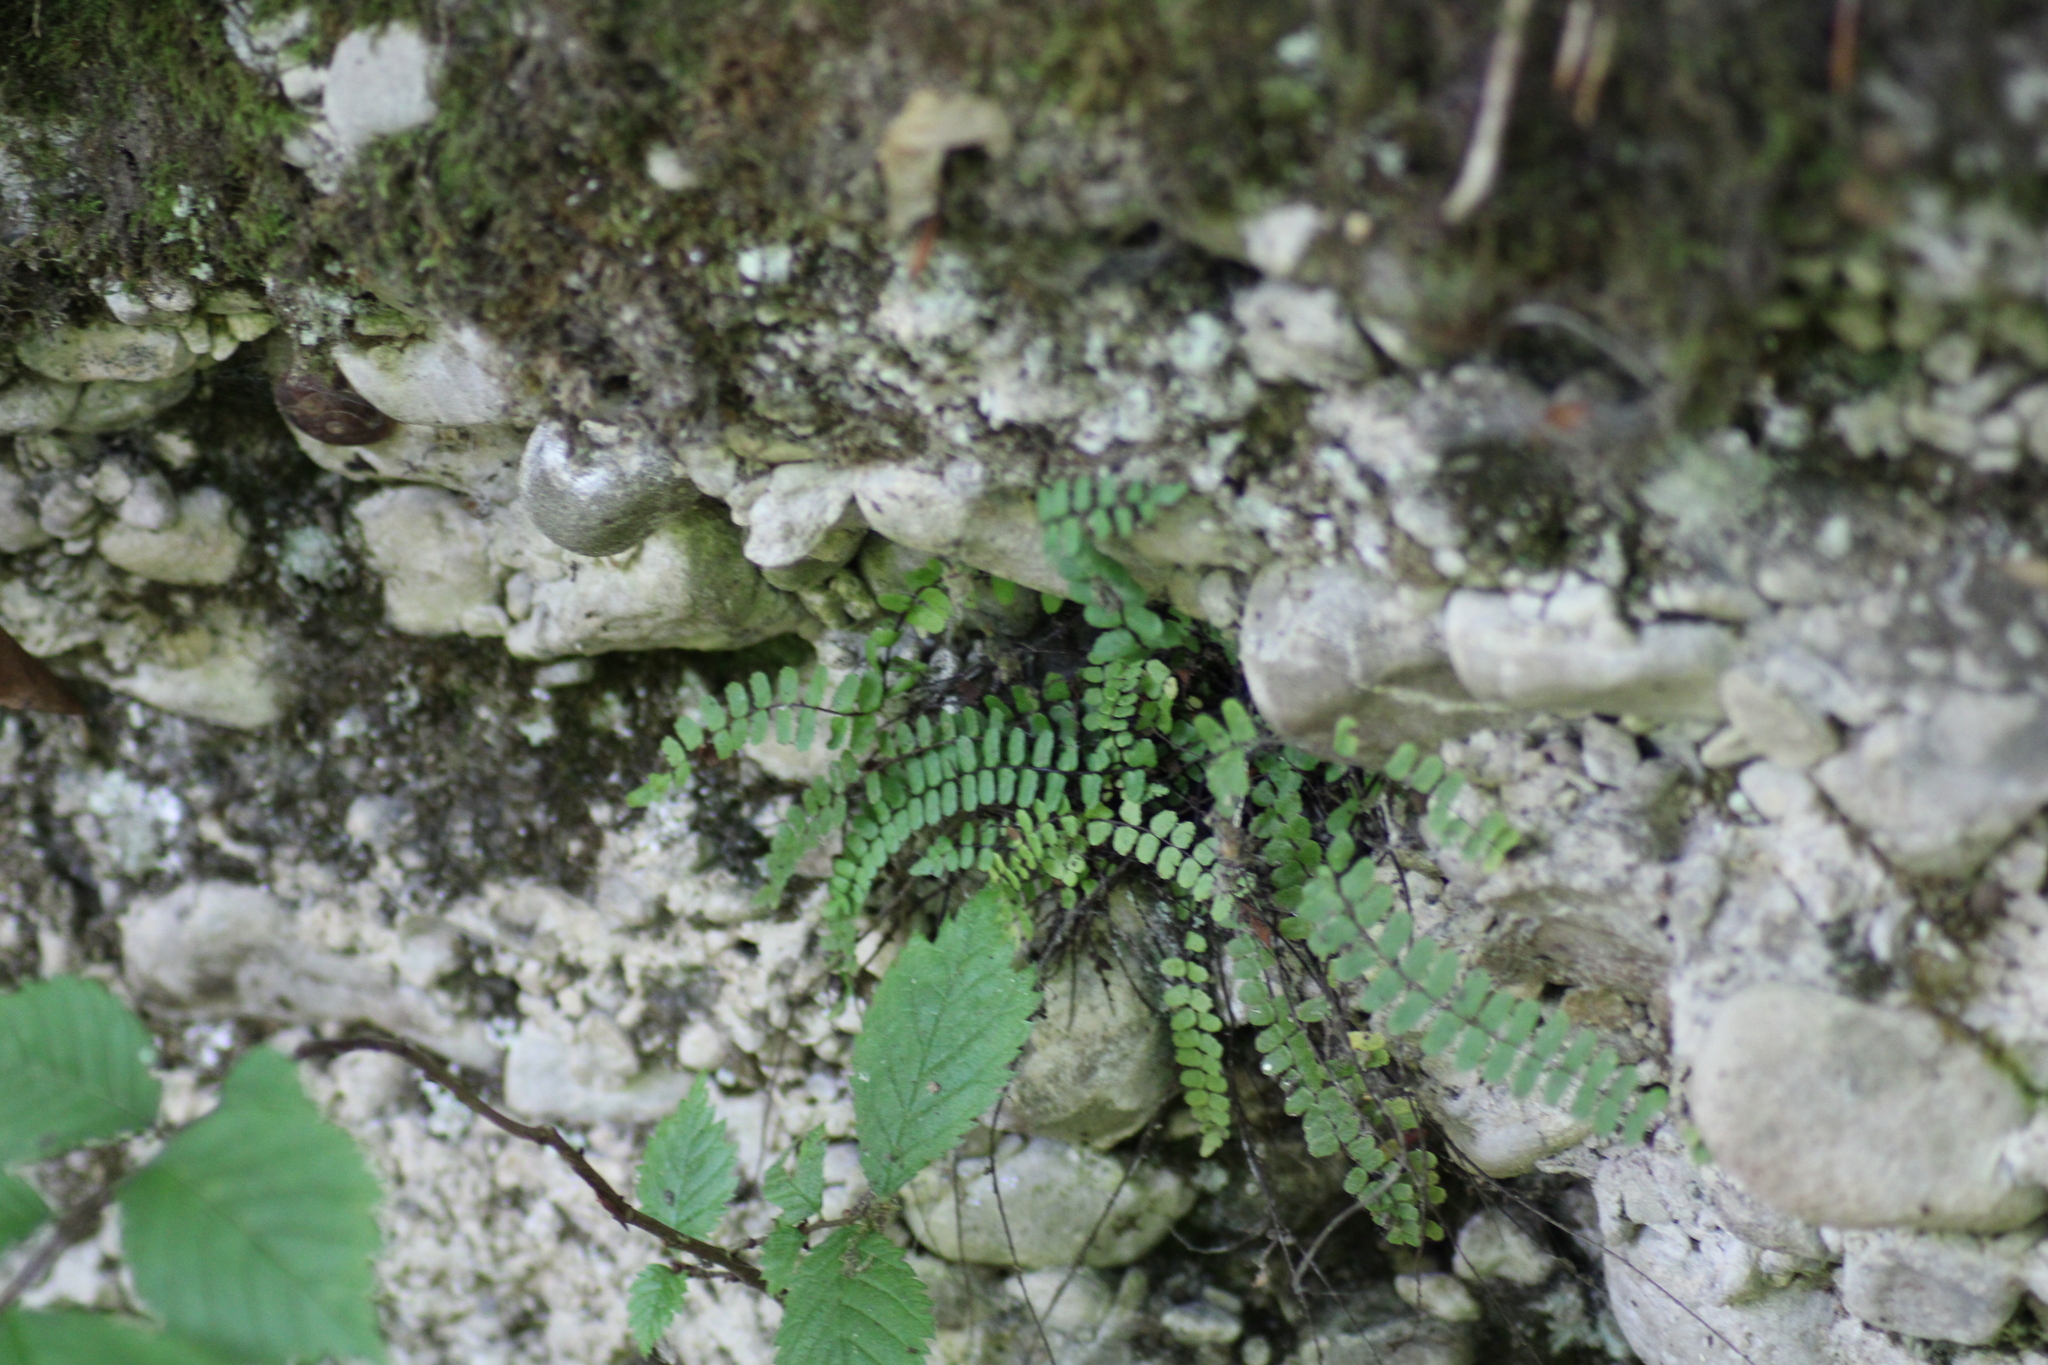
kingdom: Plantae
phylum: Tracheophyta
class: Polypodiopsida
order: Polypodiales
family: Aspleniaceae
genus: Asplenium
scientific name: Asplenium trichomanes
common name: Maidenhair spleenwort
